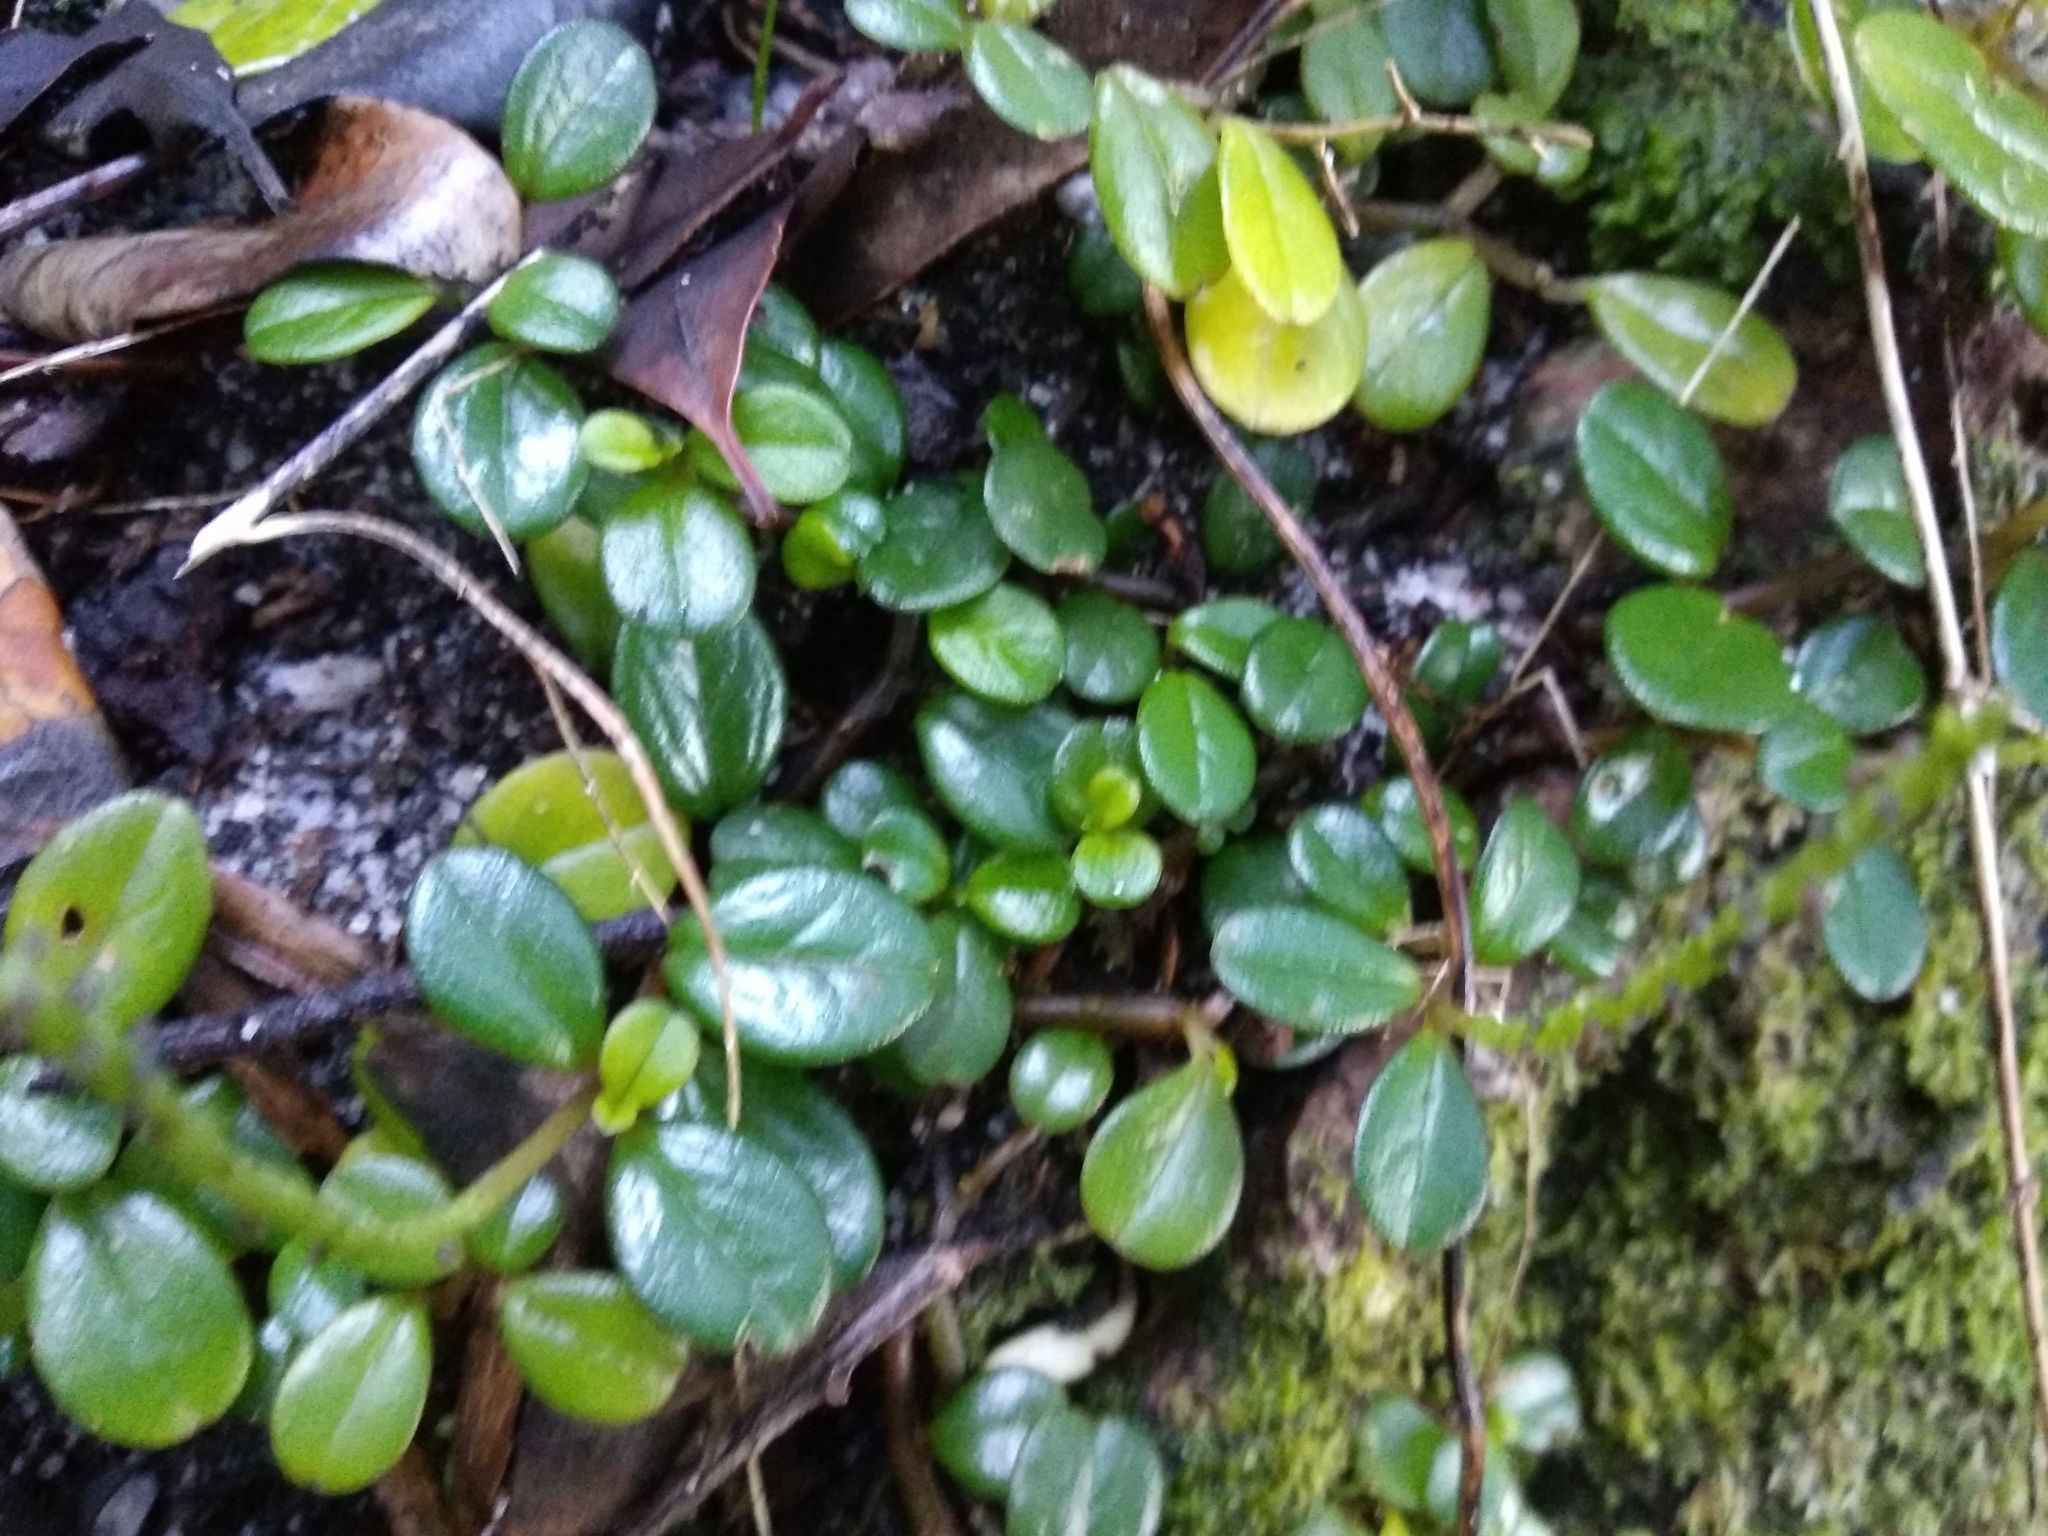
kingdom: Plantae
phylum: Tracheophyta
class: Magnoliopsida
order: Piperales
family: Piperaceae
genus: Peperomia
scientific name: Peperomia retusa
